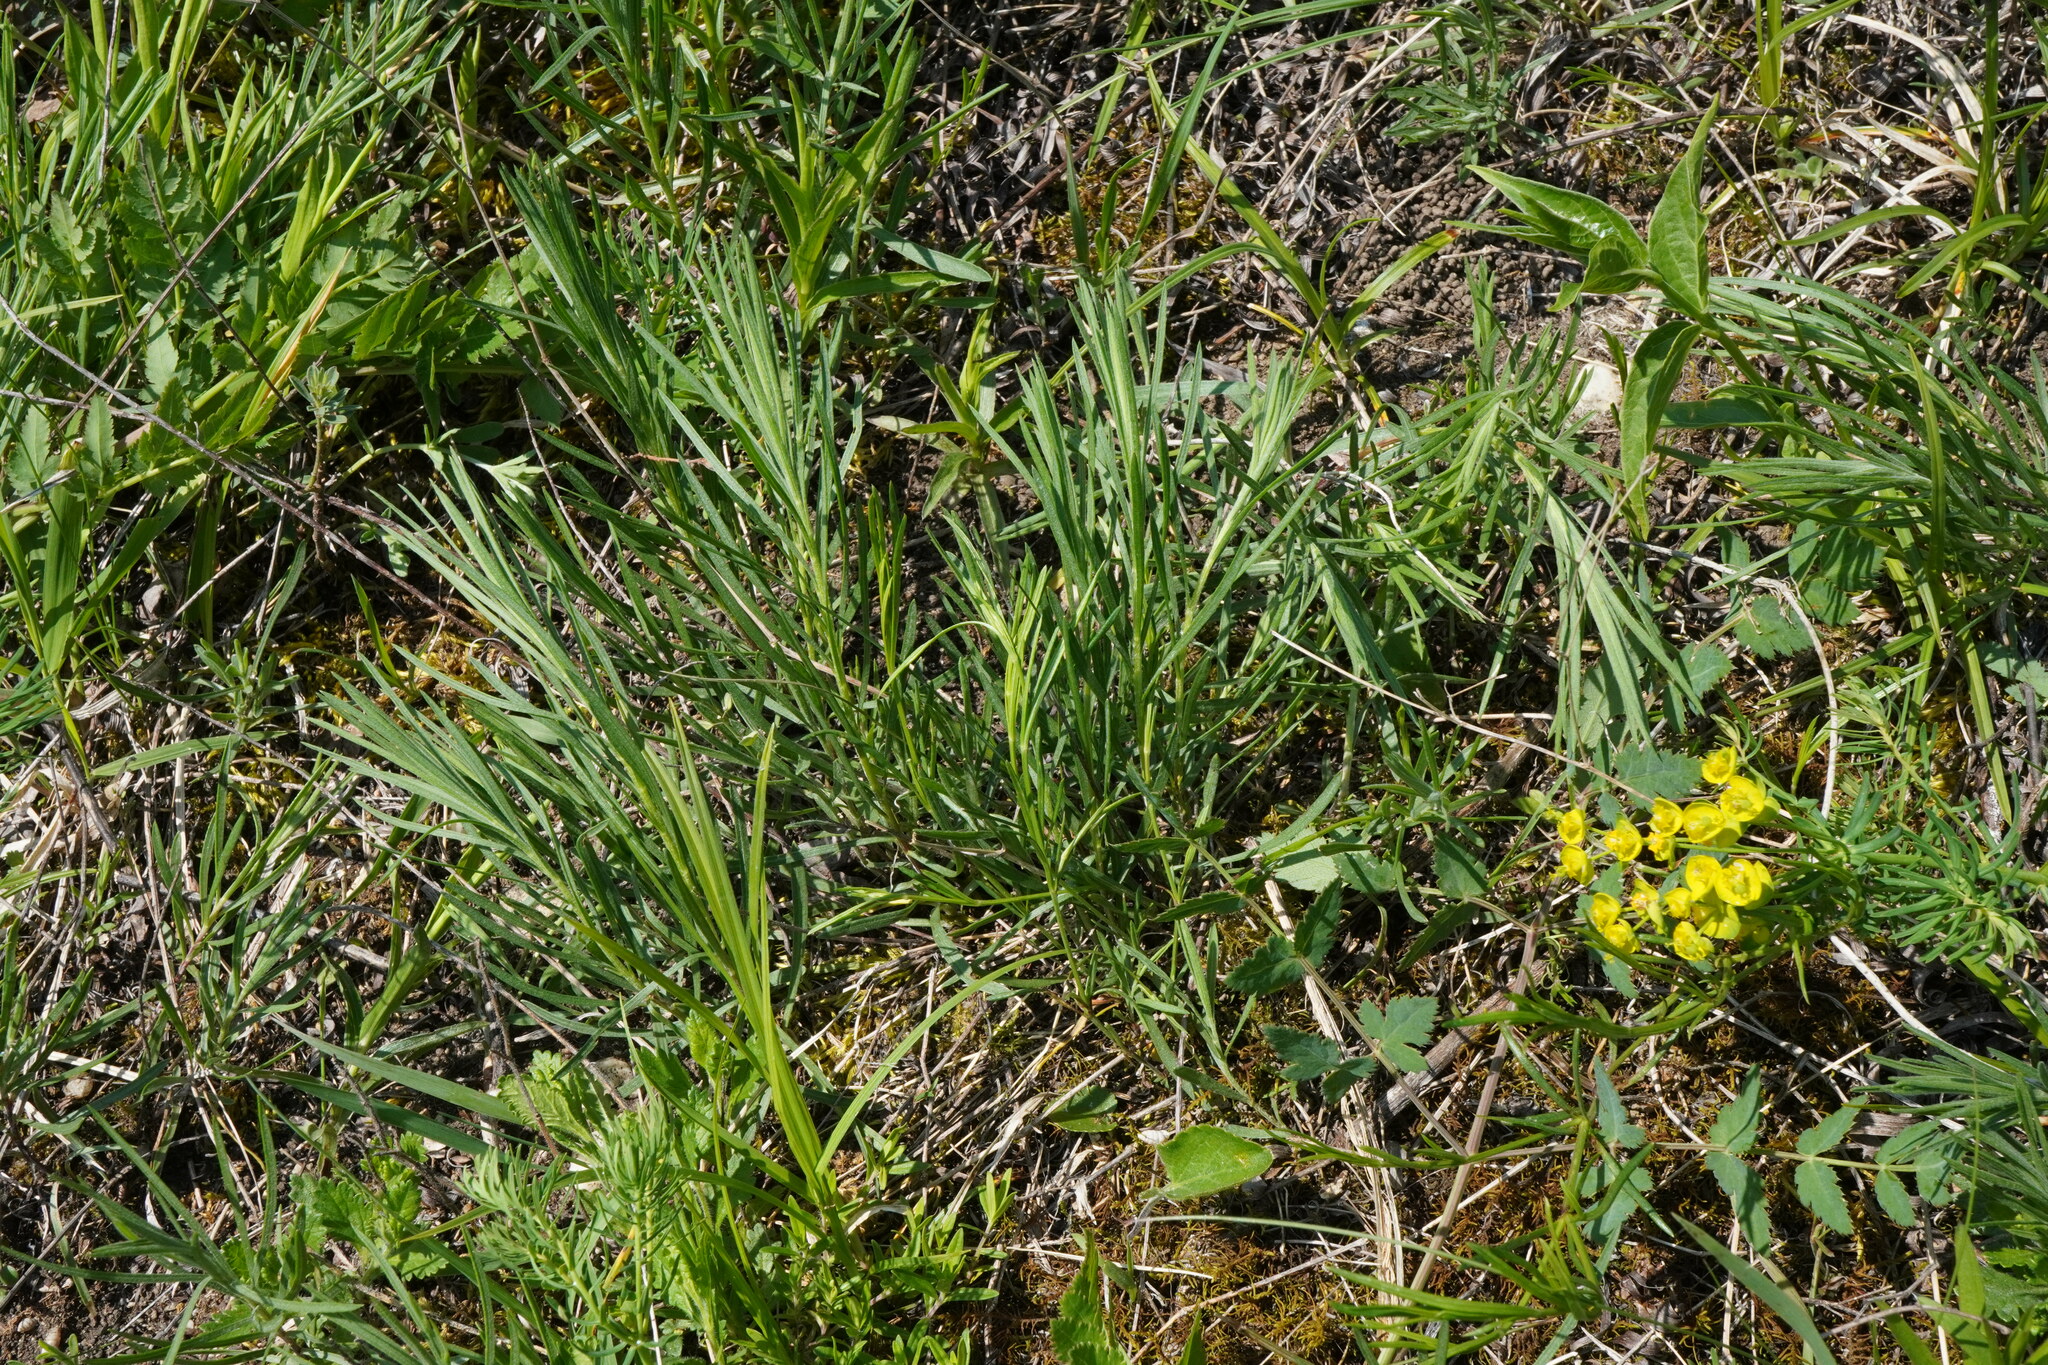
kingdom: Plantae
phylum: Tracheophyta
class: Magnoliopsida
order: Asterales
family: Asteraceae
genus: Galatella
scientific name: Galatella linosyris
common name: Goldilocks aster
